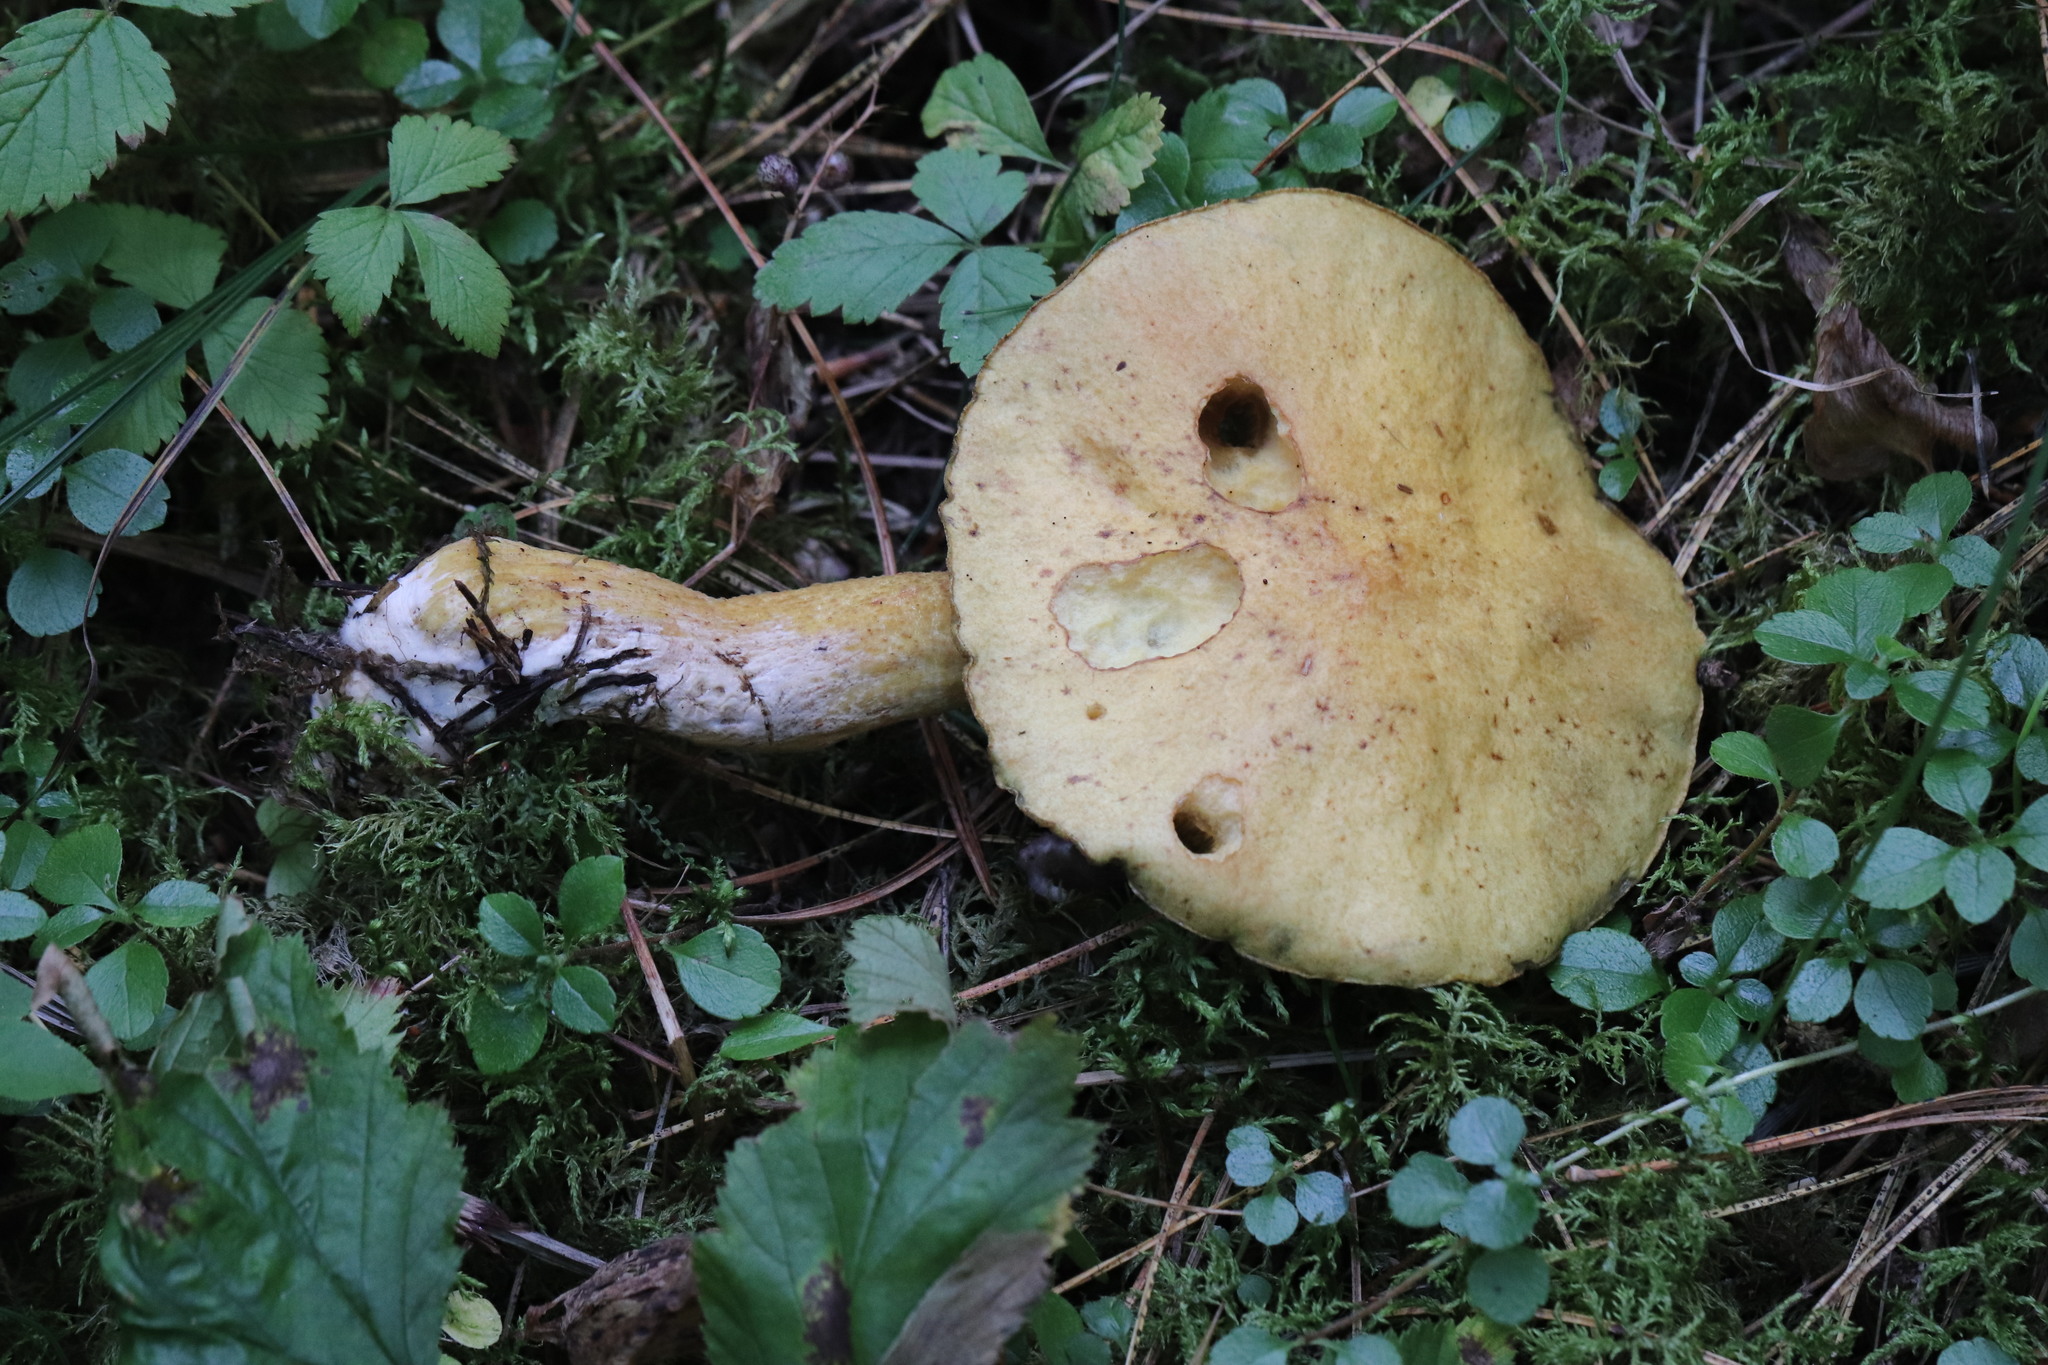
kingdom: Fungi
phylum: Basidiomycota
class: Agaricomycetes
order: Boletales
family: Suillaceae
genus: Suillus
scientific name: Suillus plorans
